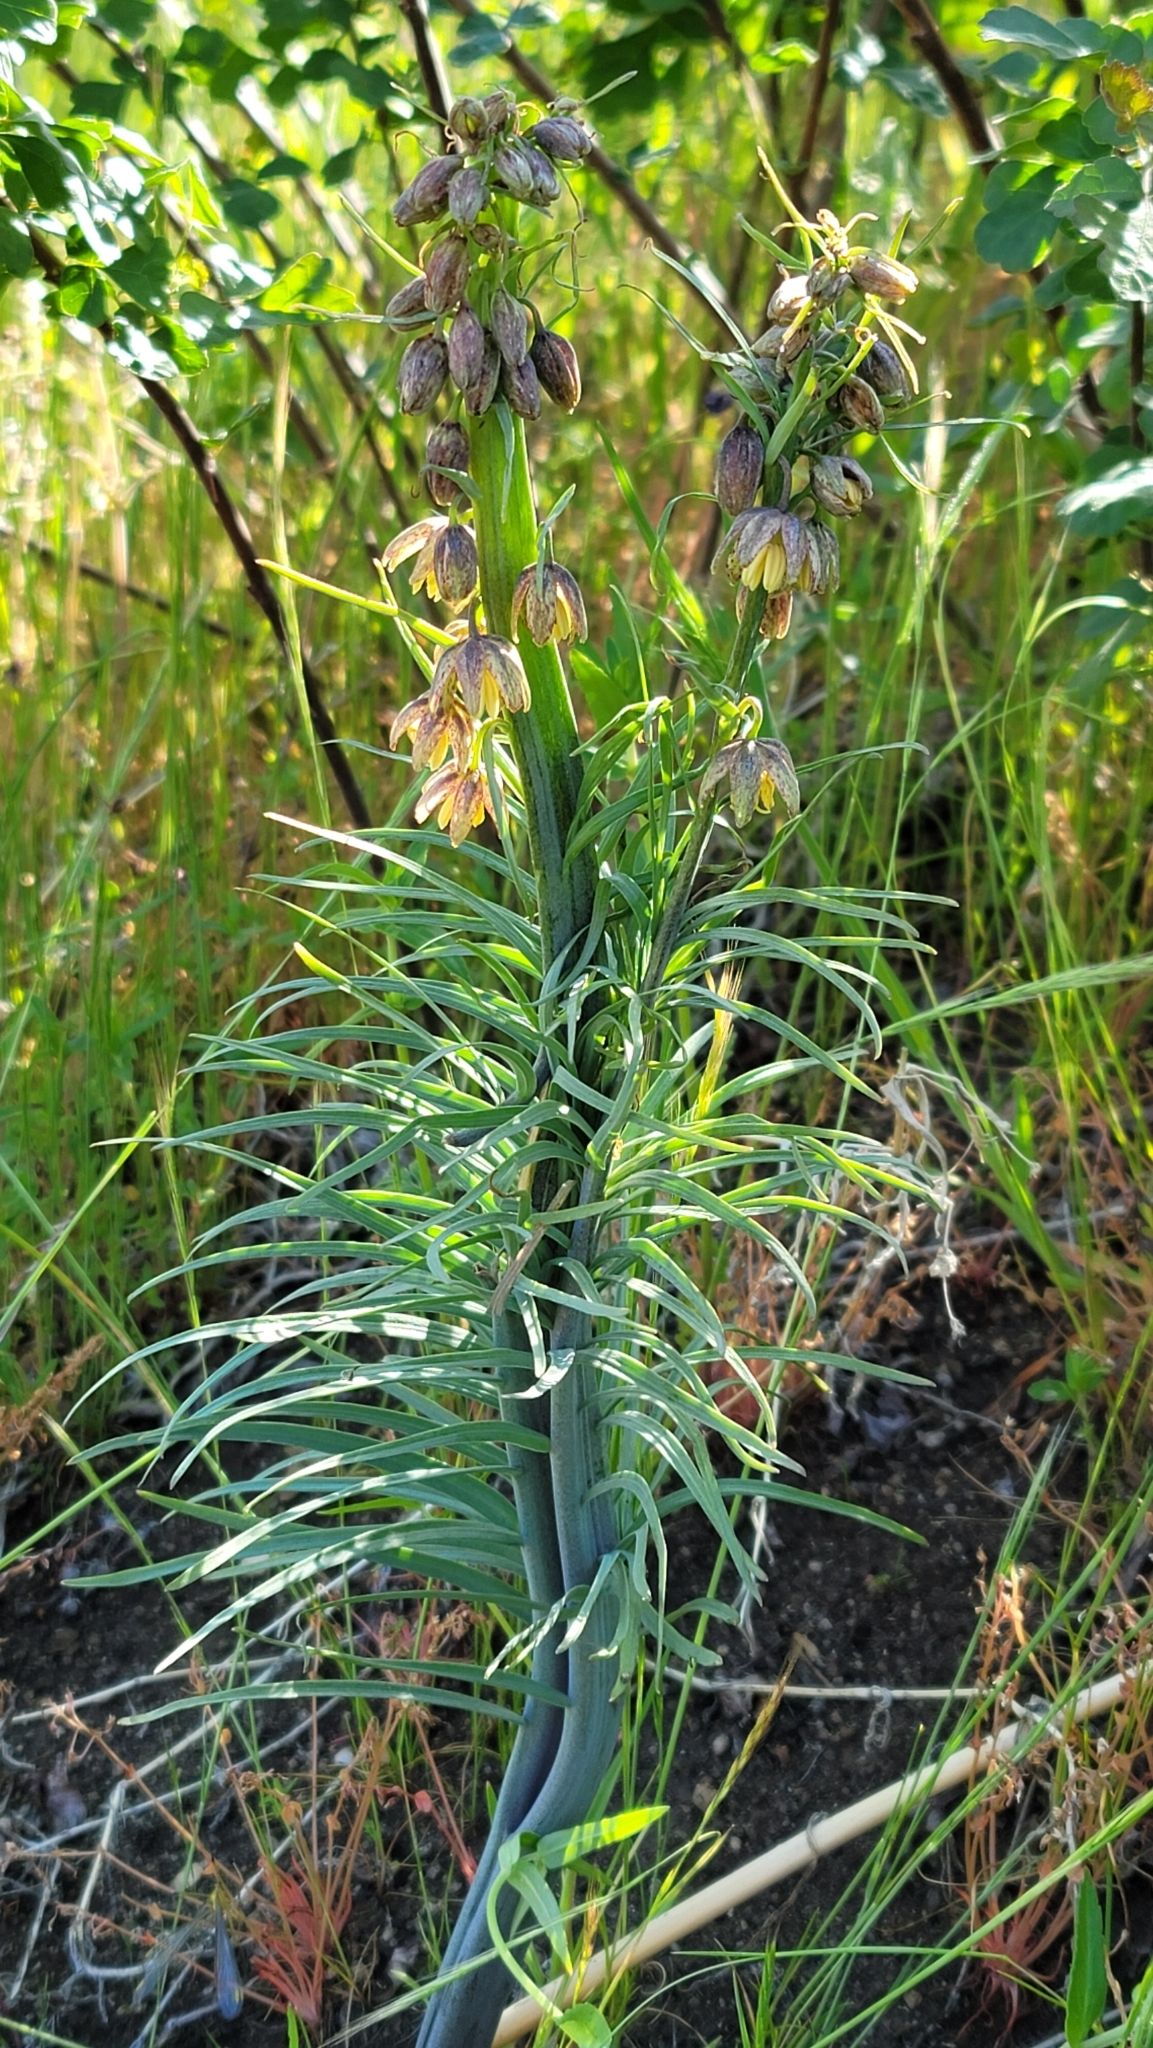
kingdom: Plantae
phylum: Tracheophyta
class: Liliopsida
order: Liliales
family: Liliaceae
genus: Fritillaria
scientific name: Fritillaria micrantha
